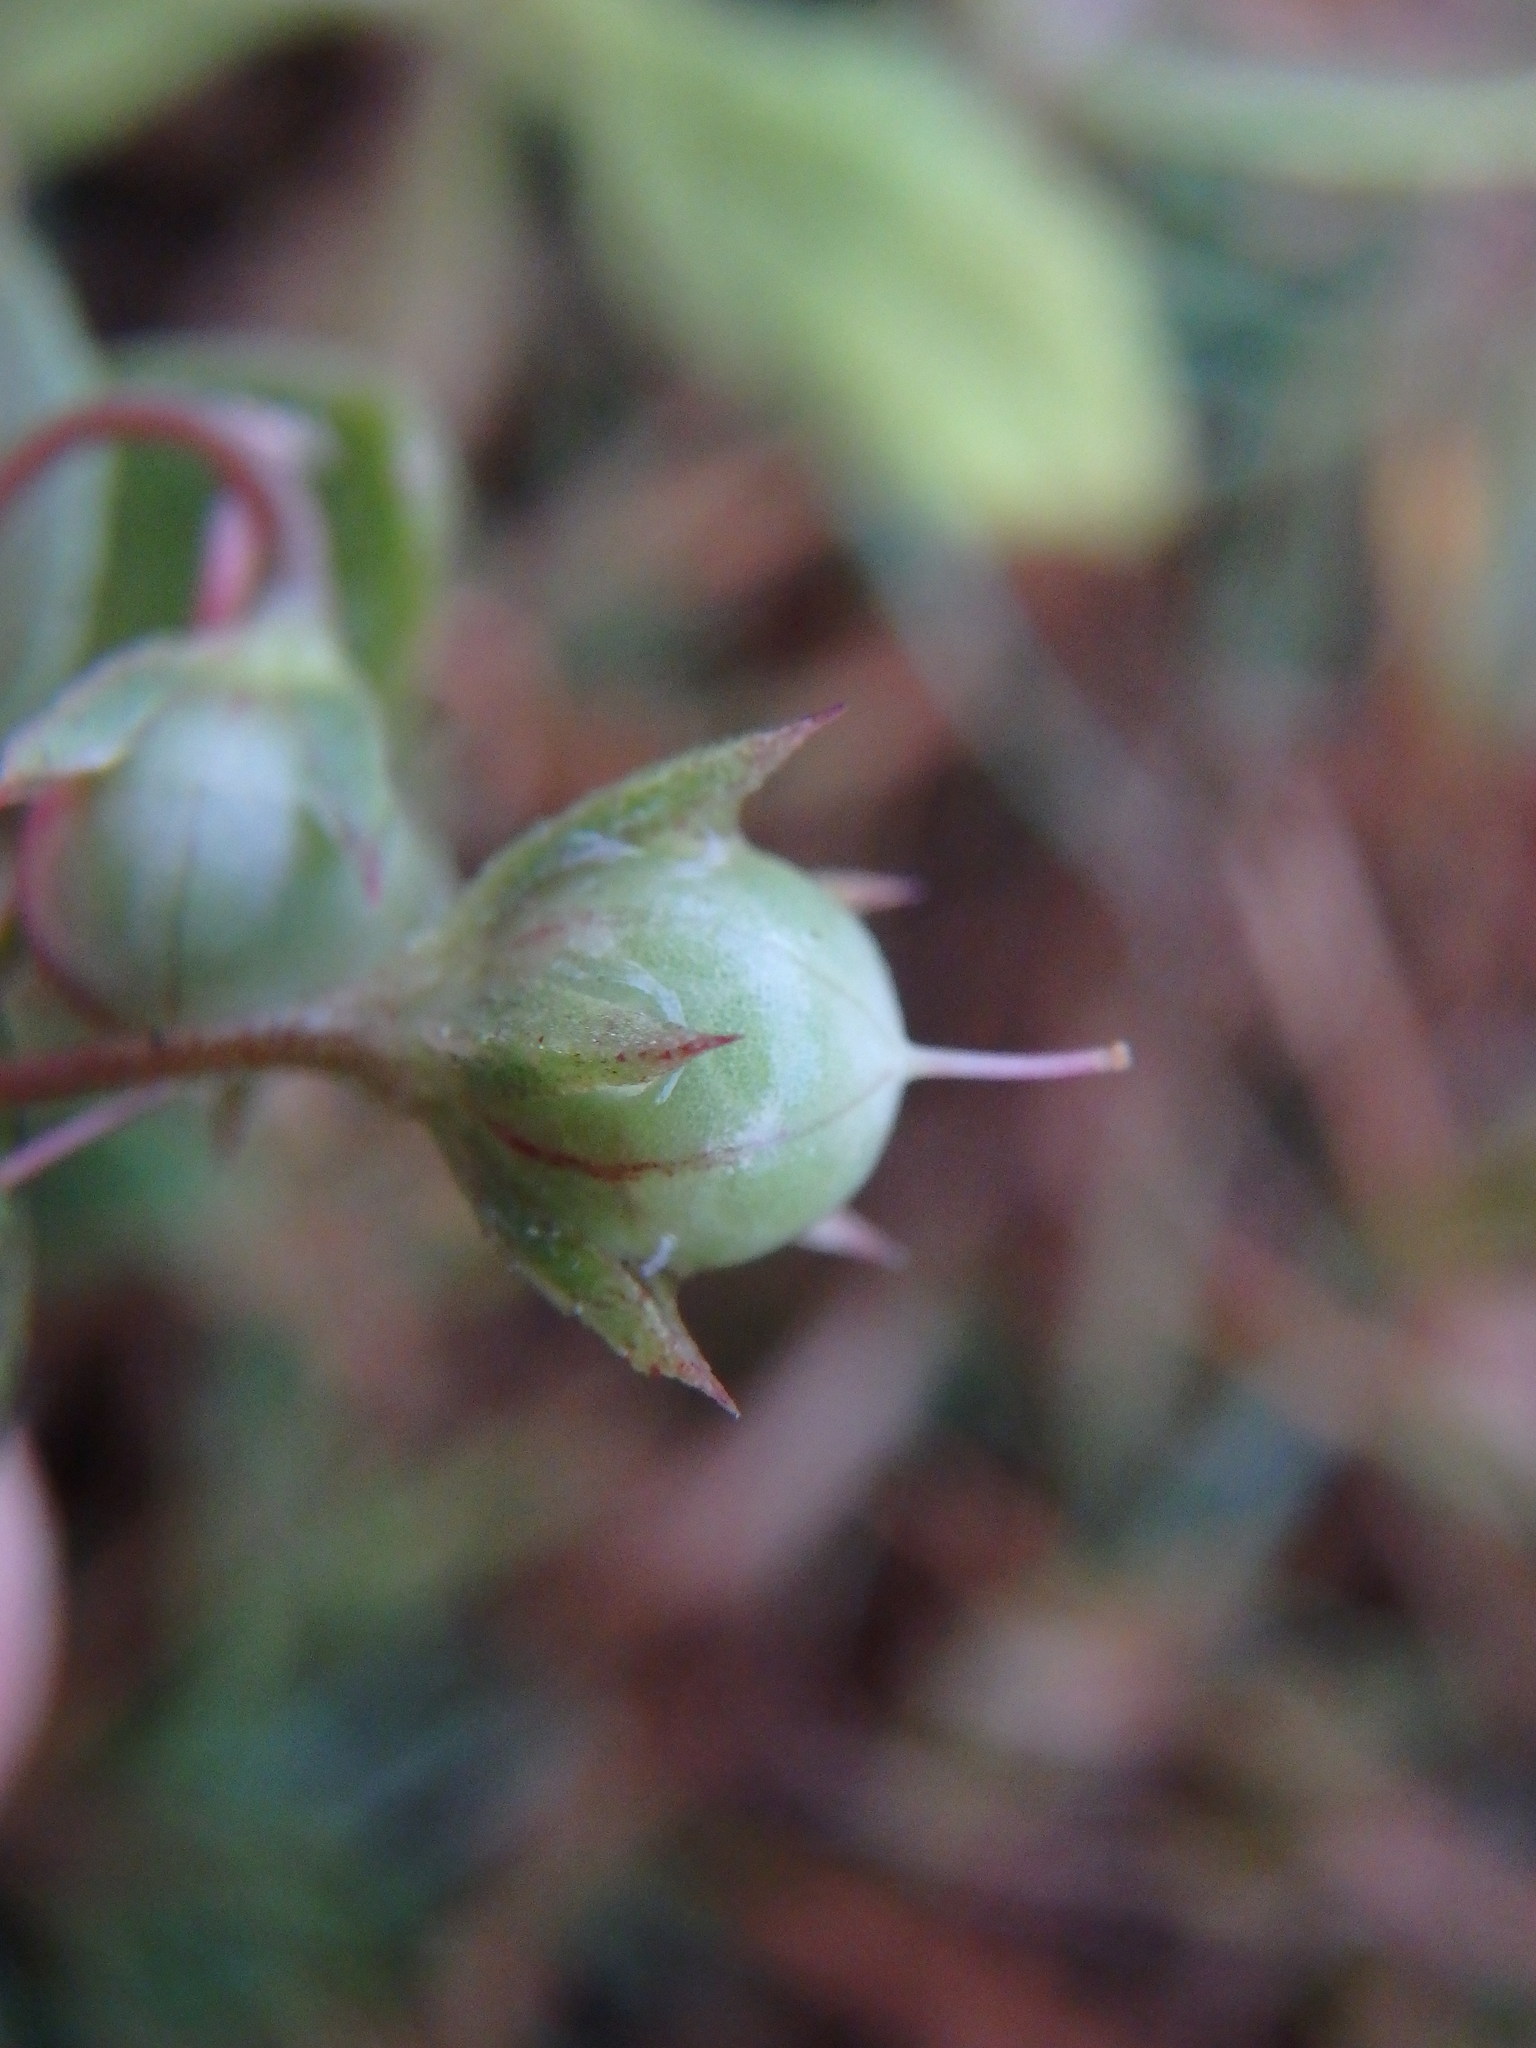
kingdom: Plantae
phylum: Tracheophyta
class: Magnoliopsida
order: Ericales
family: Primulaceae
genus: Lysimachia
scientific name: Lysimachia arvensis
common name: Scarlet pimpernel
